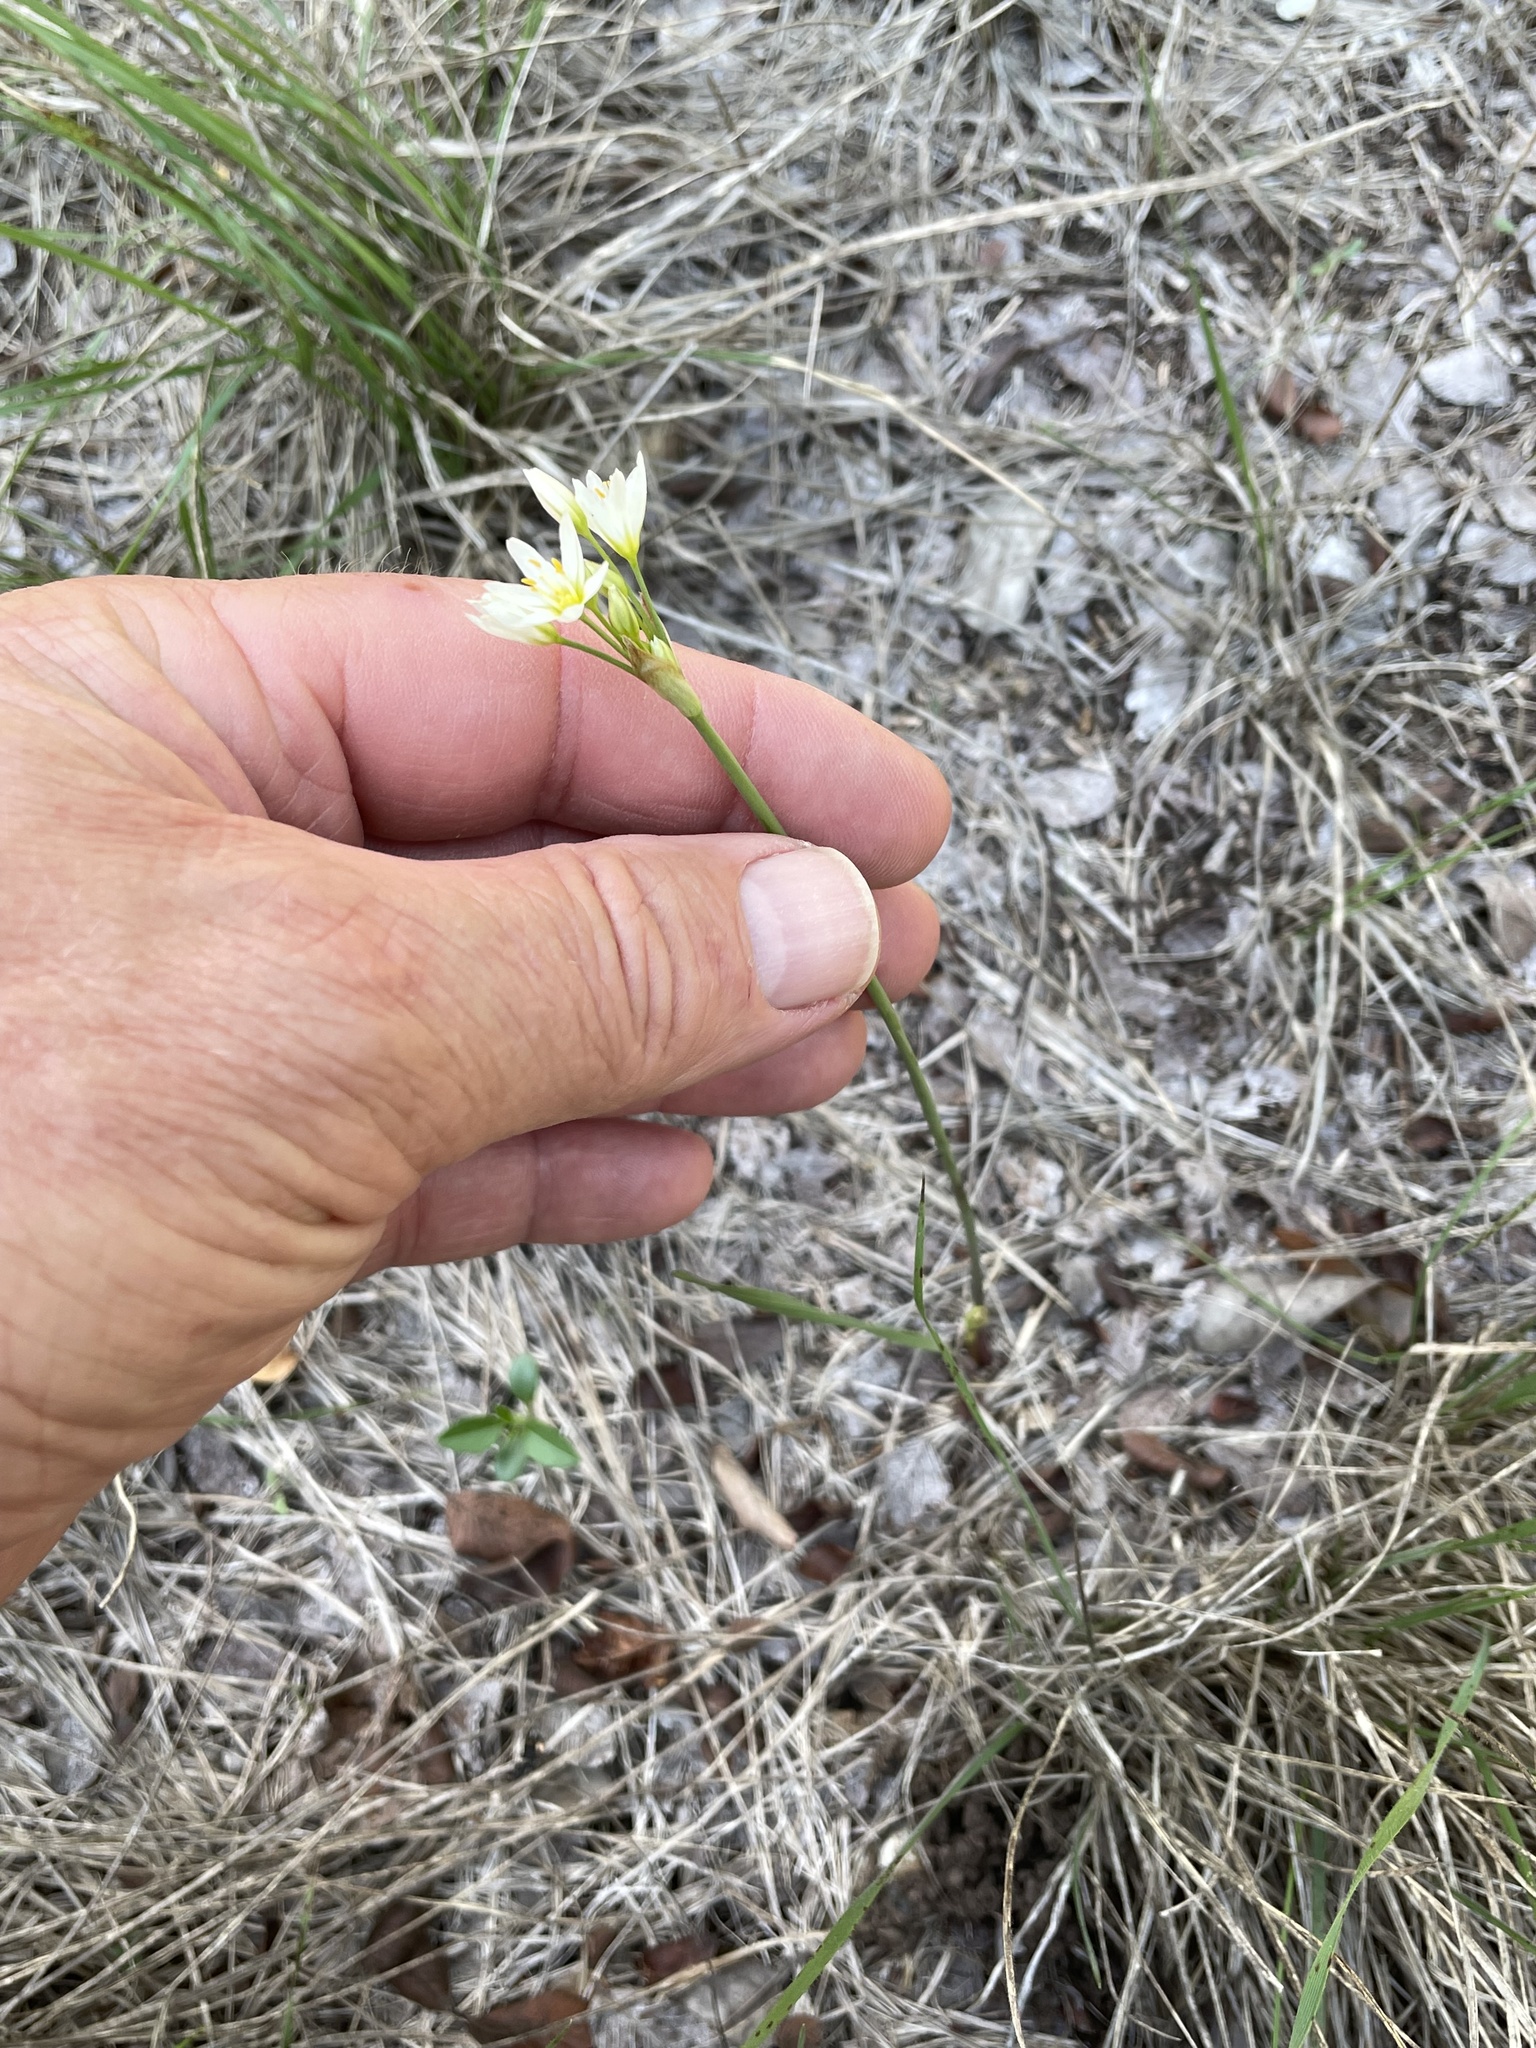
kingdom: Plantae
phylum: Tracheophyta
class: Liliopsida
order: Asparagales
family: Amaryllidaceae
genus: Nothoscordum
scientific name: Nothoscordum bivalve
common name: Crow-poison
